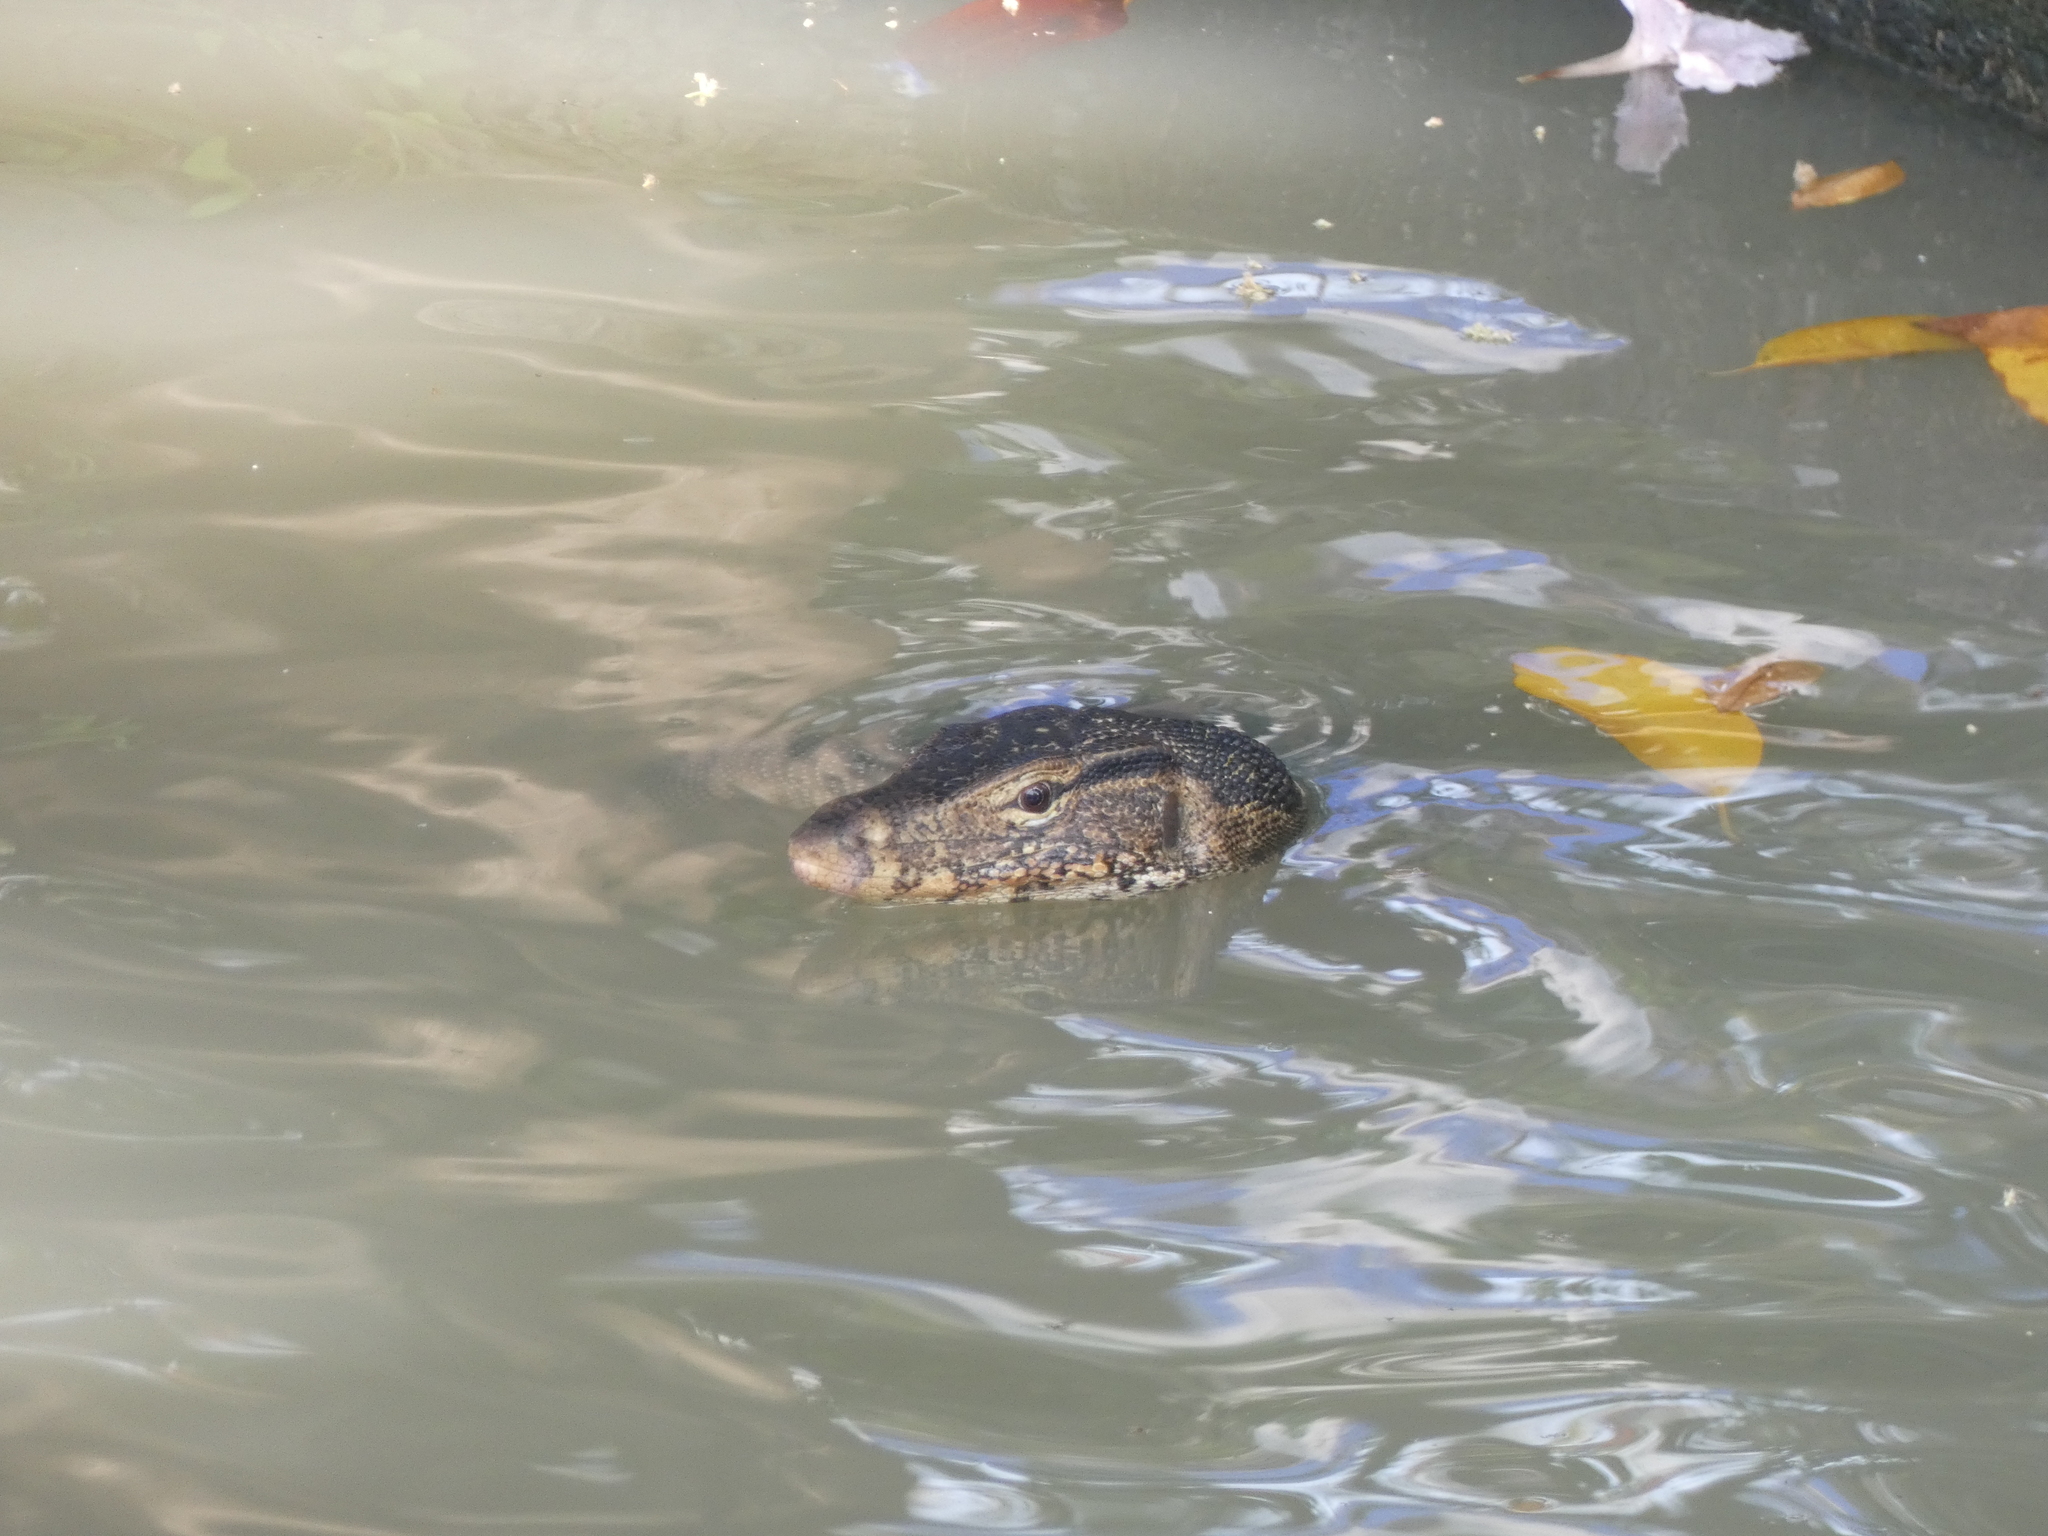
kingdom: Animalia
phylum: Chordata
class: Squamata
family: Varanidae
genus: Varanus
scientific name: Varanus salvator
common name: Common water monitor
